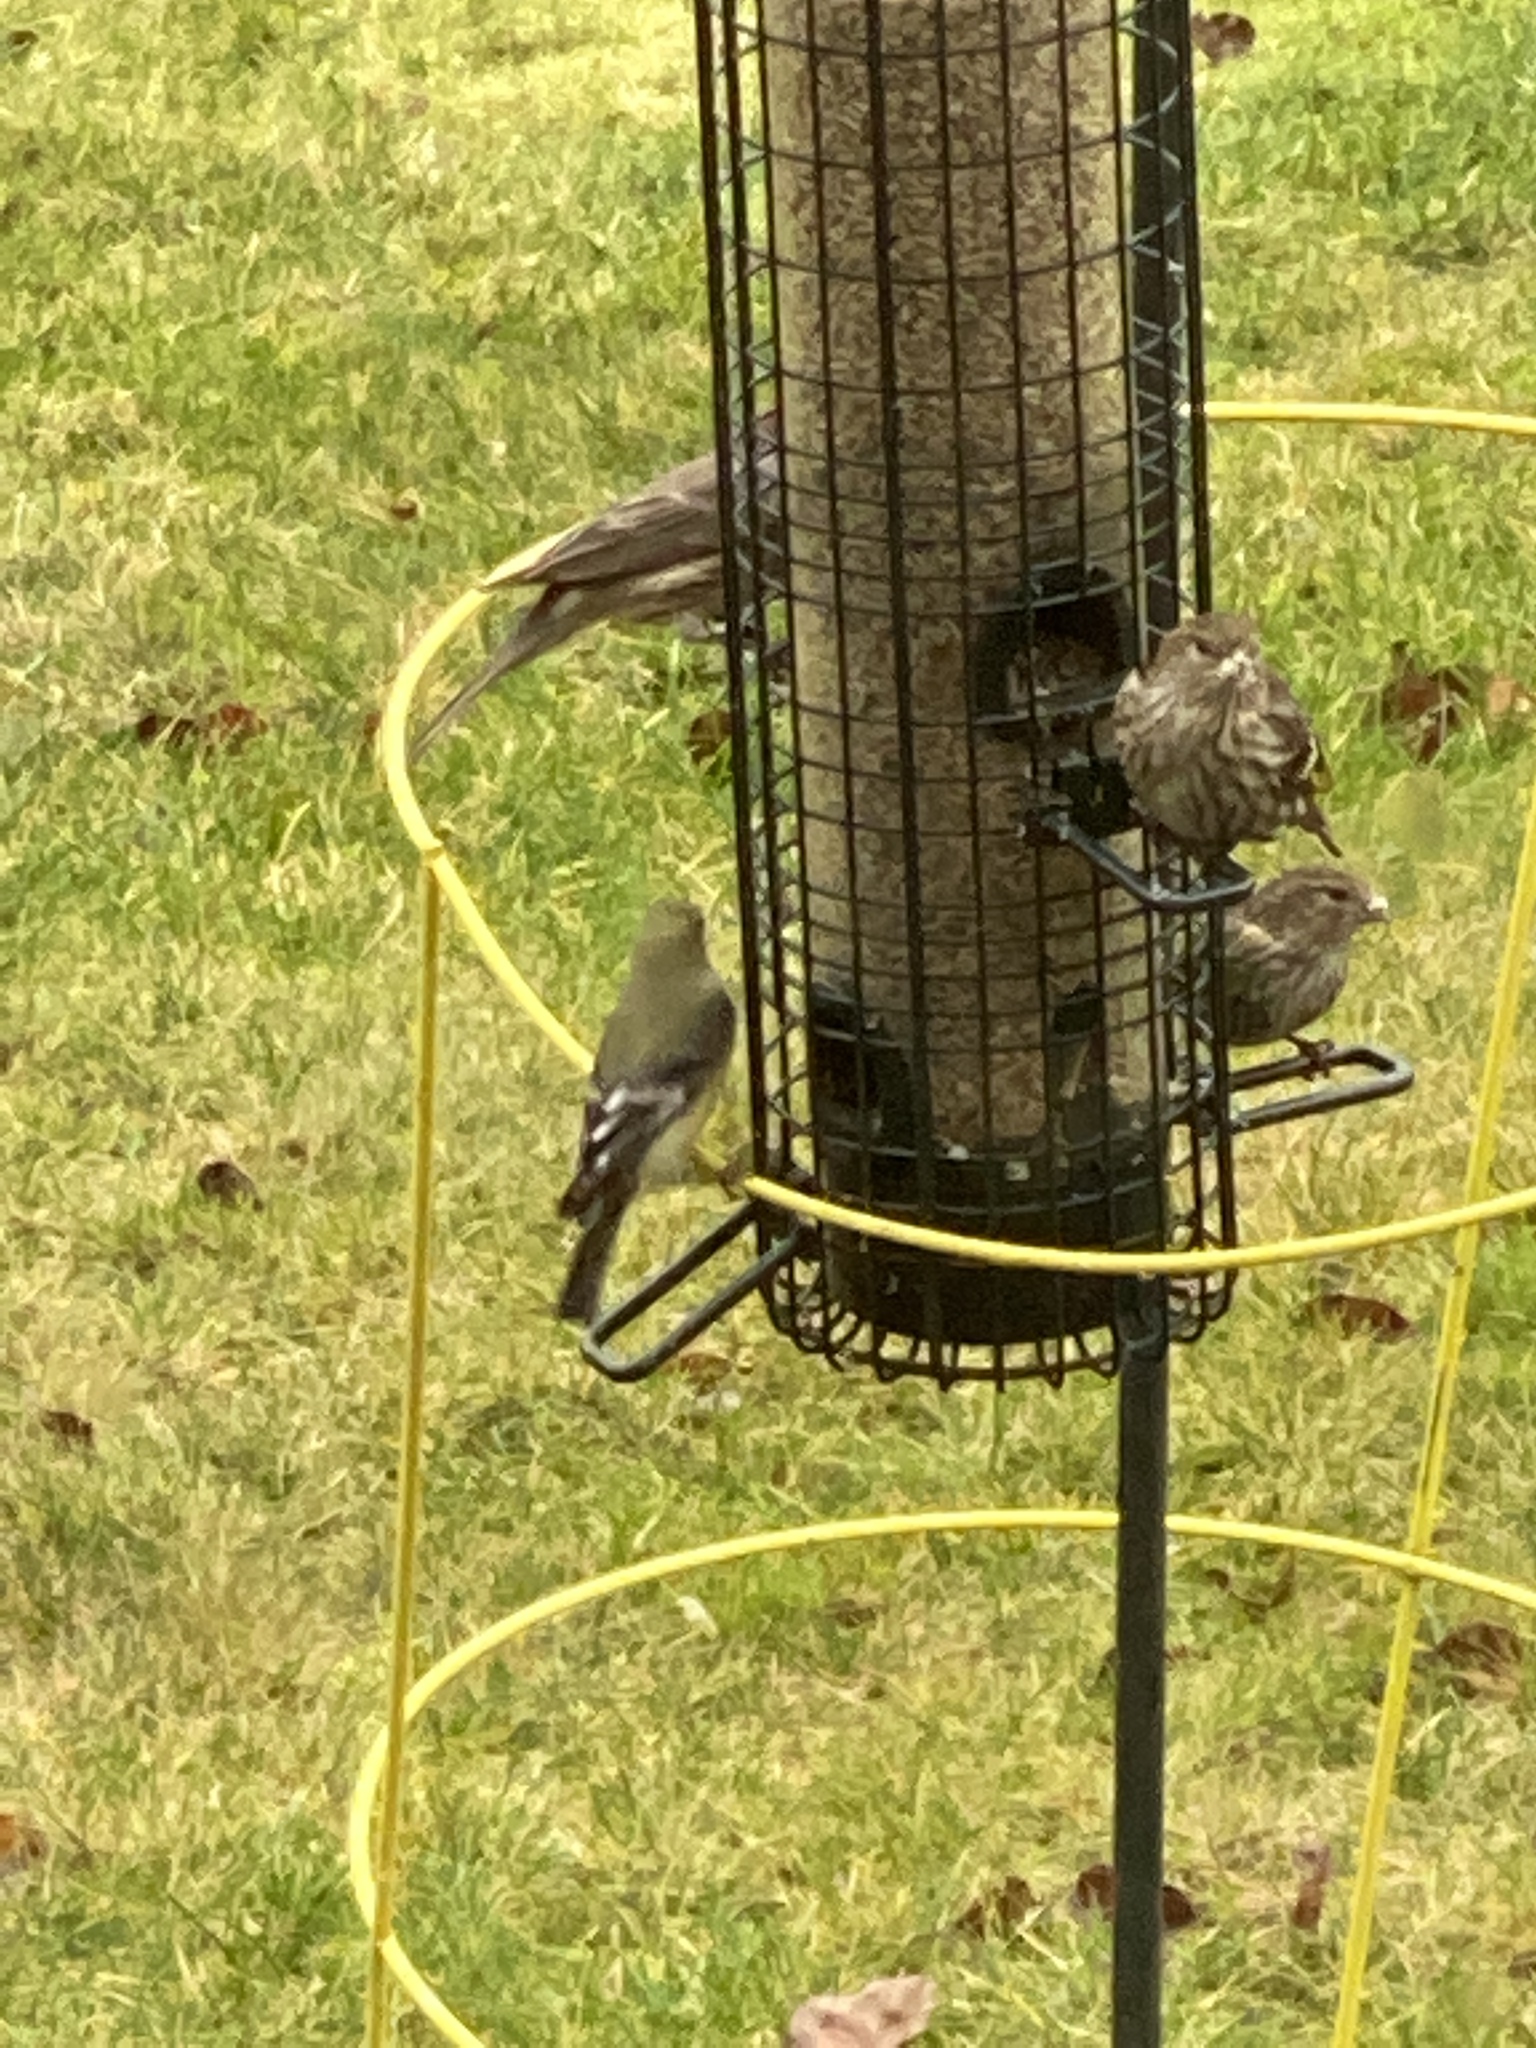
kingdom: Animalia
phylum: Chordata
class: Aves
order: Passeriformes
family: Fringillidae
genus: Spinus
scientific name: Spinus psaltria
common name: Lesser goldfinch
